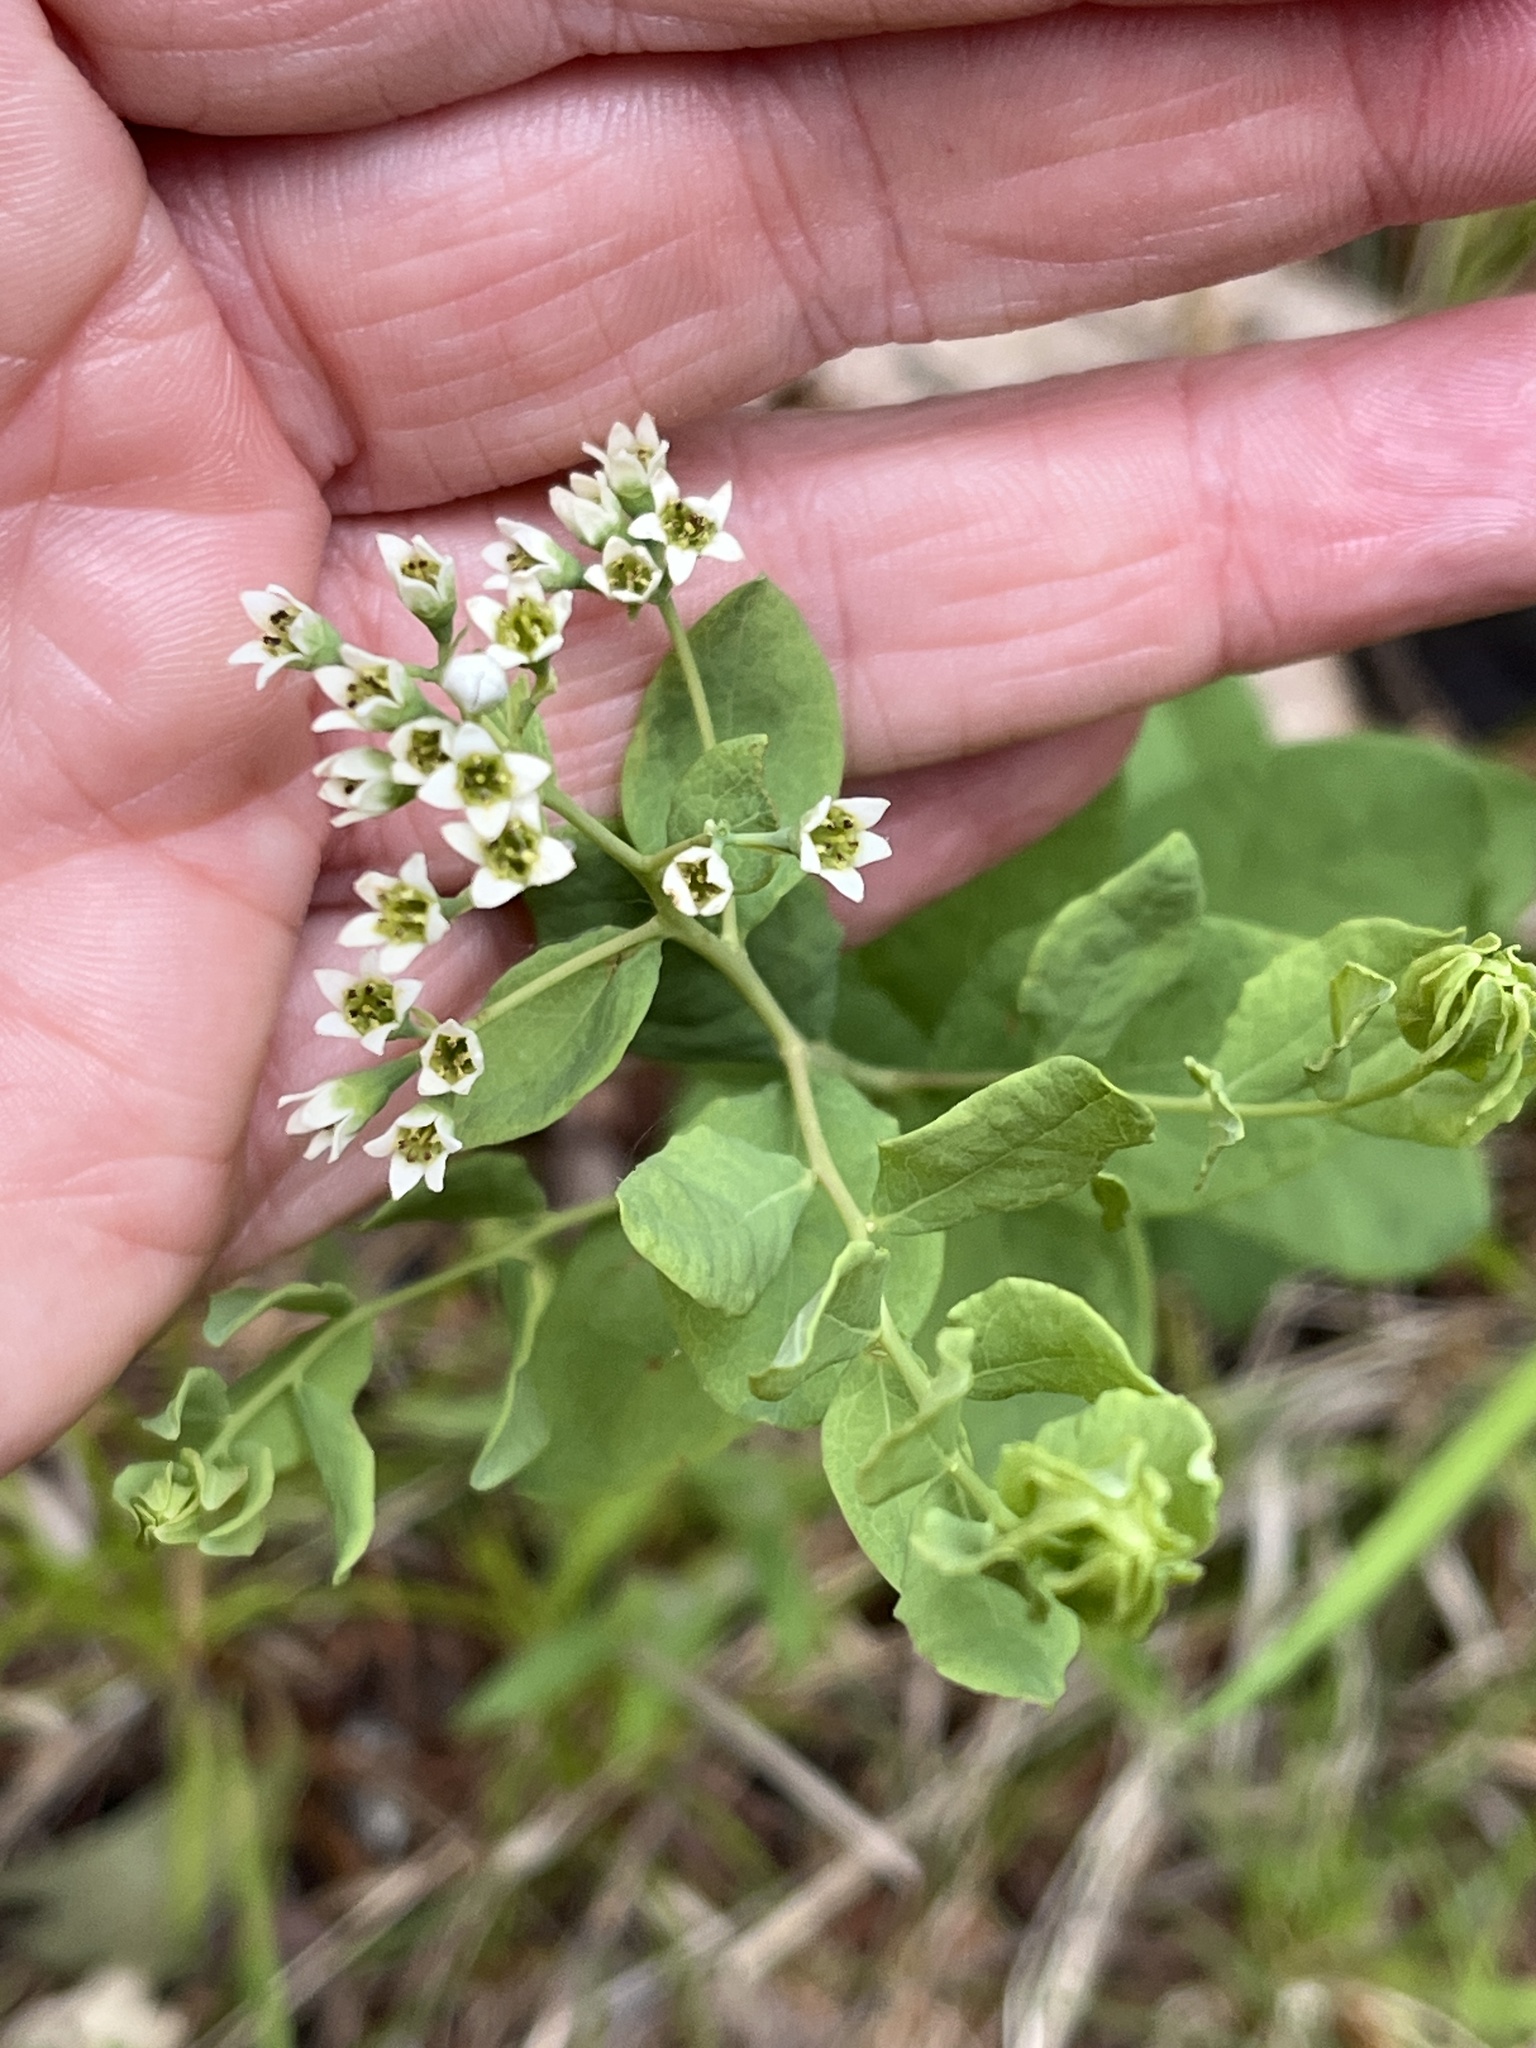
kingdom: Plantae
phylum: Tracheophyta
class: Magnoliopsida
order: Santalales
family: Comandraceae
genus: Comandra
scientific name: Comandra umbellata
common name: Bastard toadflax
